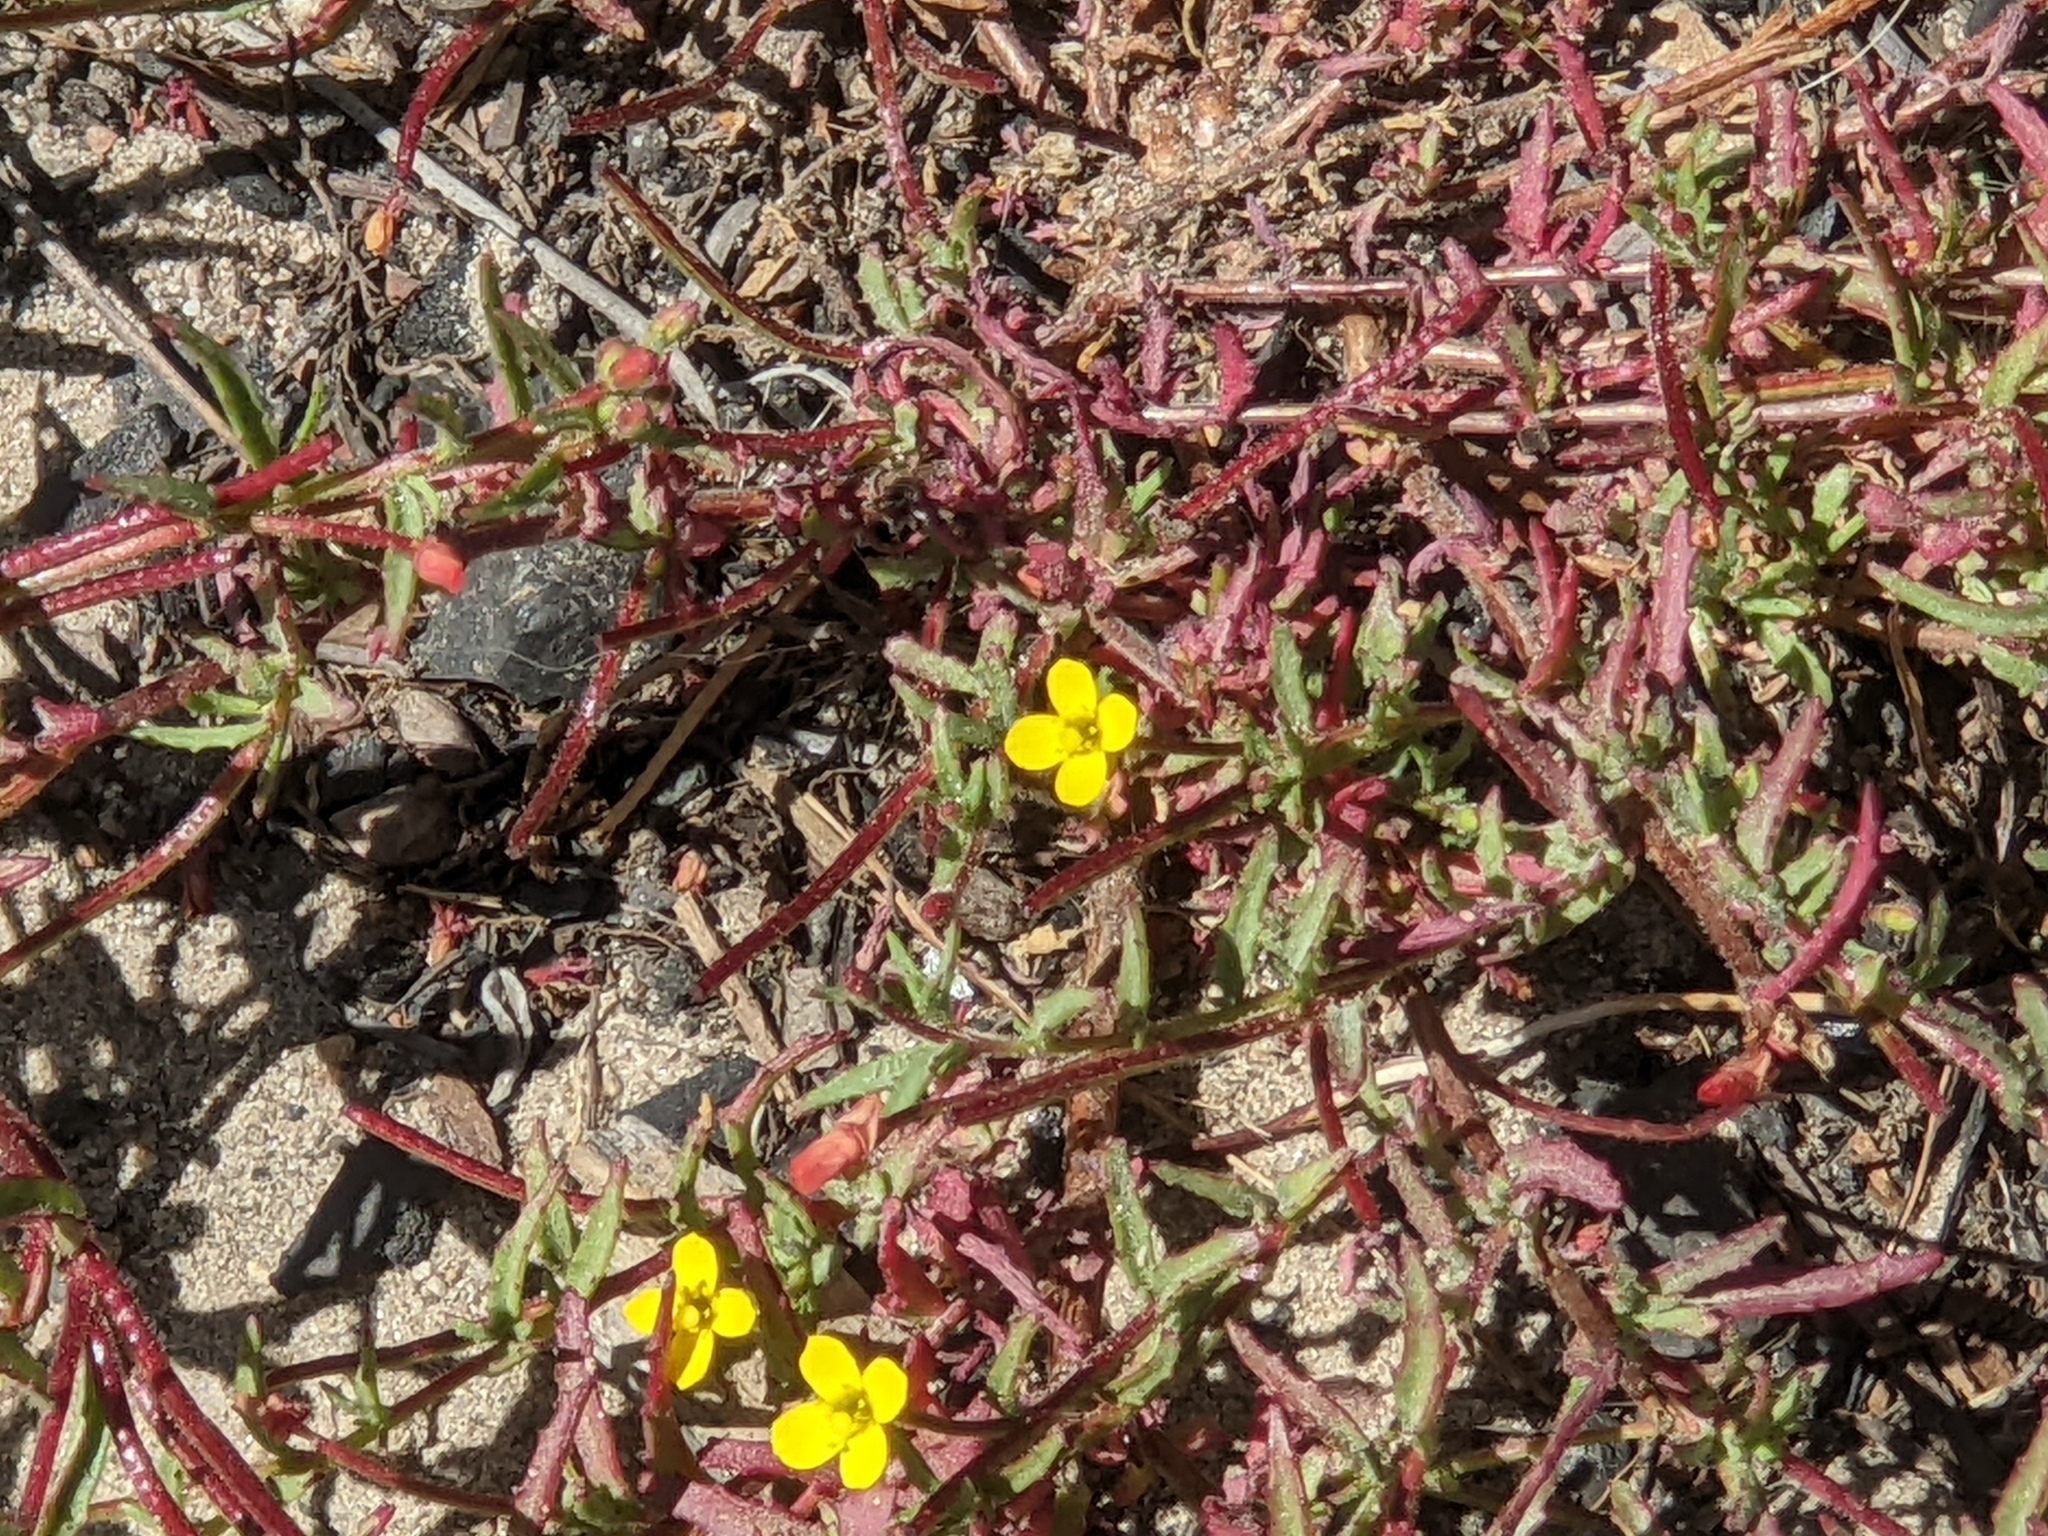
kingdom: Plantae
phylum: Tracheophyta
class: Magnoliopsida
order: Myrtales
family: Onagraceae
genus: Camissonia
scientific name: Camissonia strigulosa
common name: Contorted-primrose
